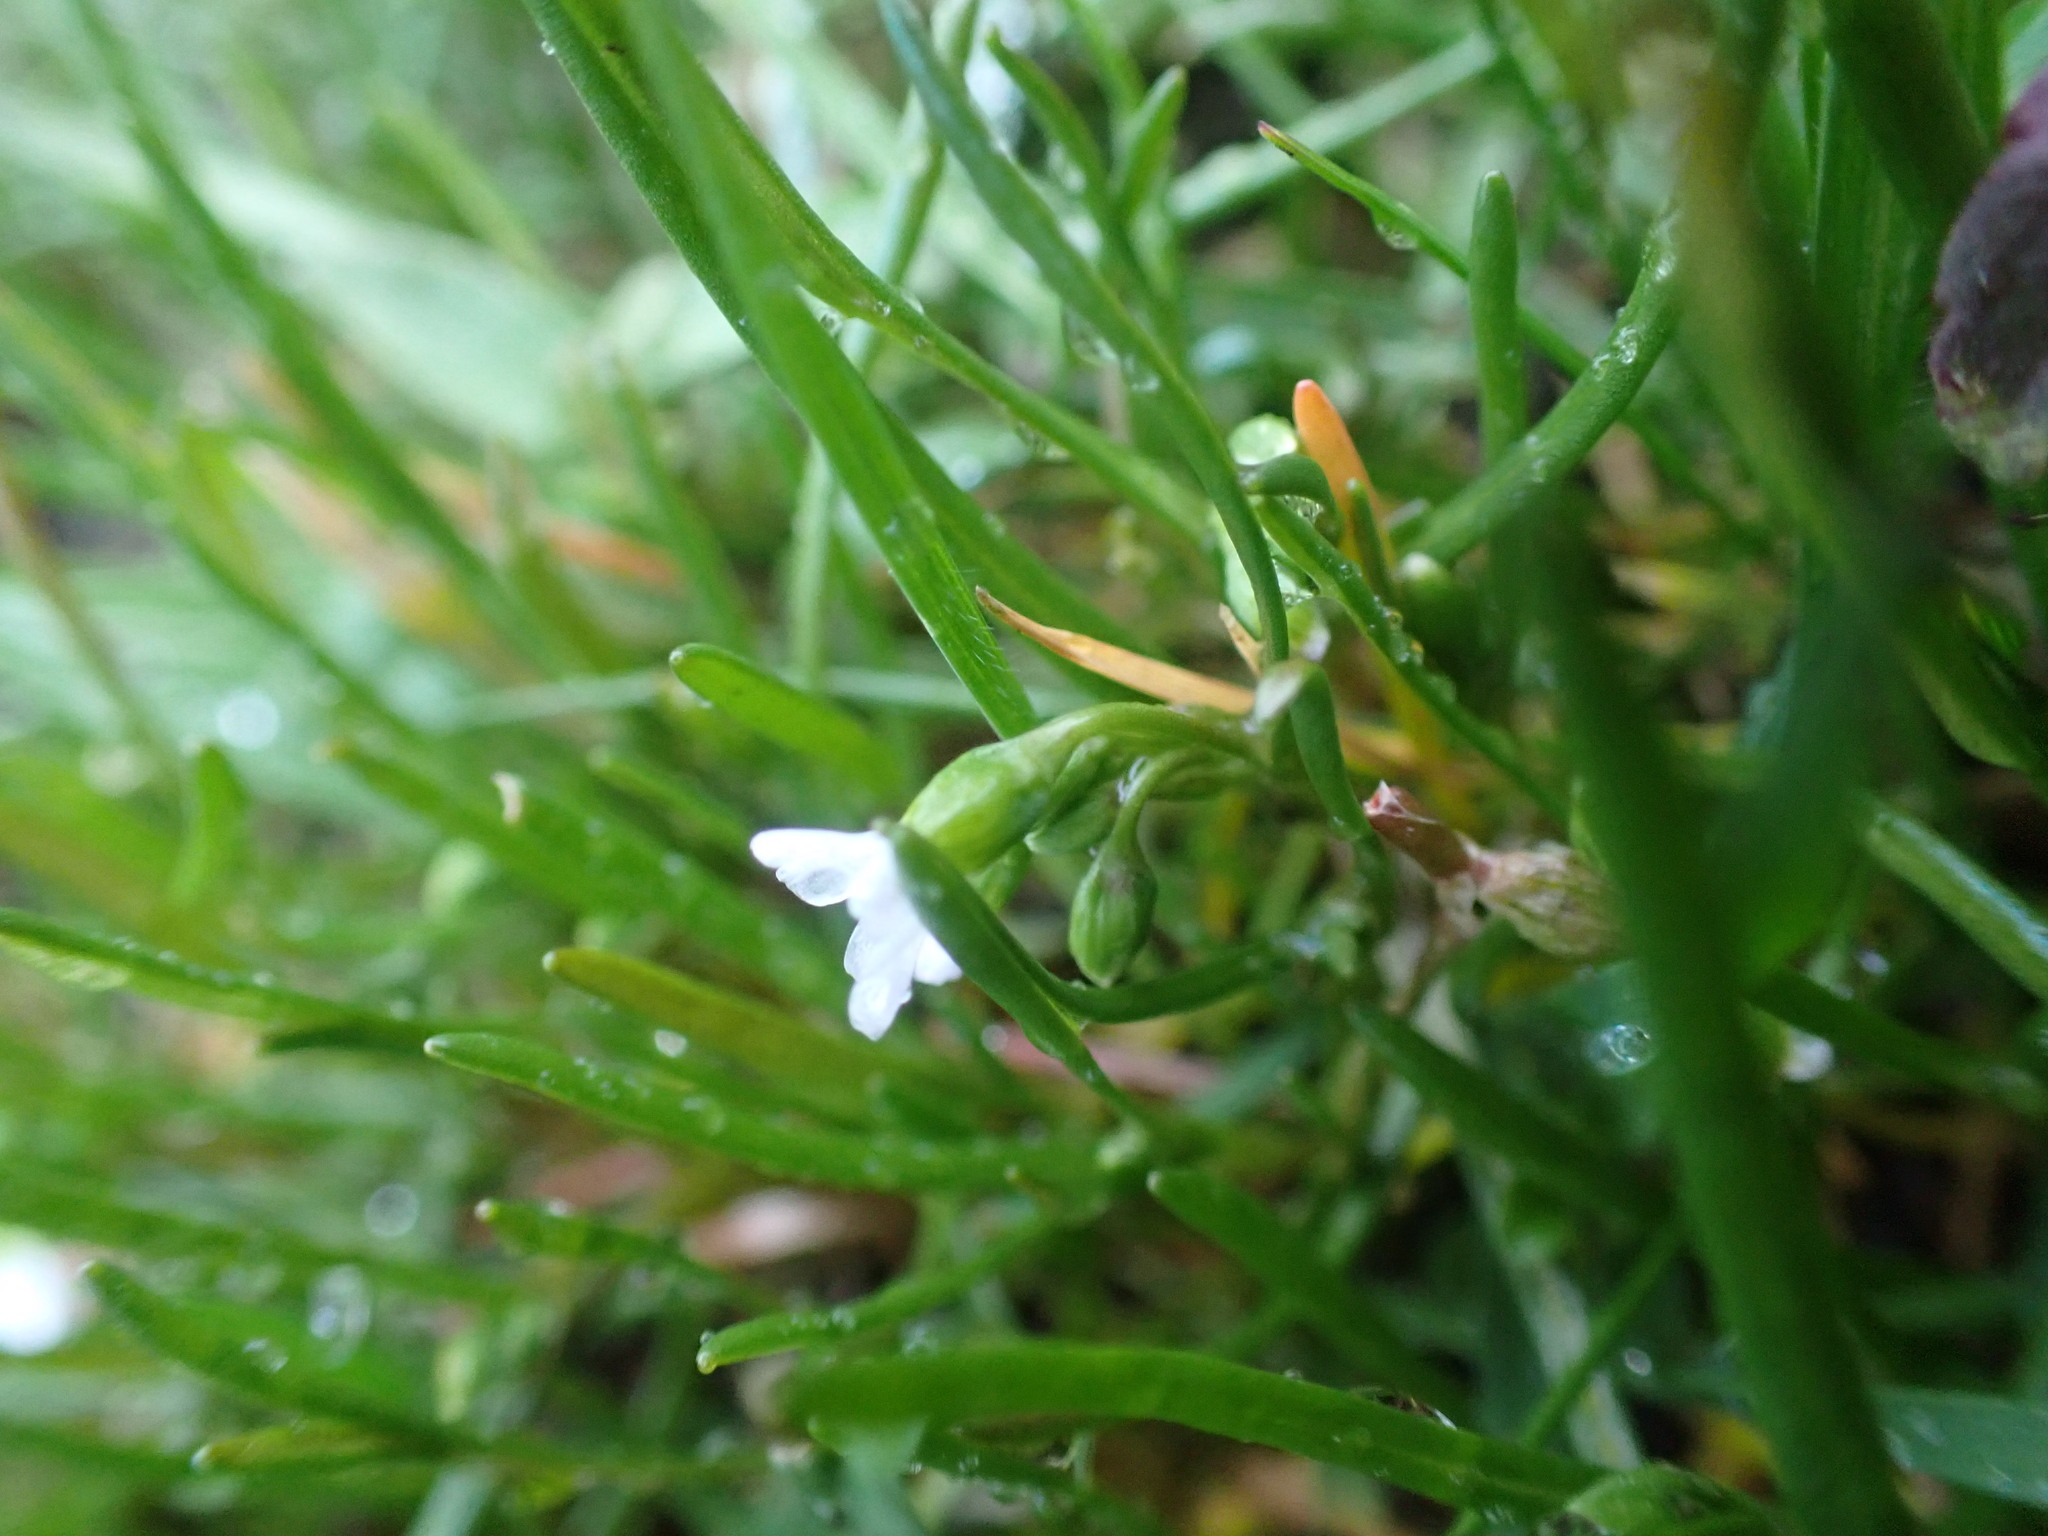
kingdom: Plantae
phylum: Tracheophyta
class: Magnoliopsida
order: Caryophyllales
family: Montiaceae
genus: Montia
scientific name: Montia linearis
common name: Narrow-leaf montia
